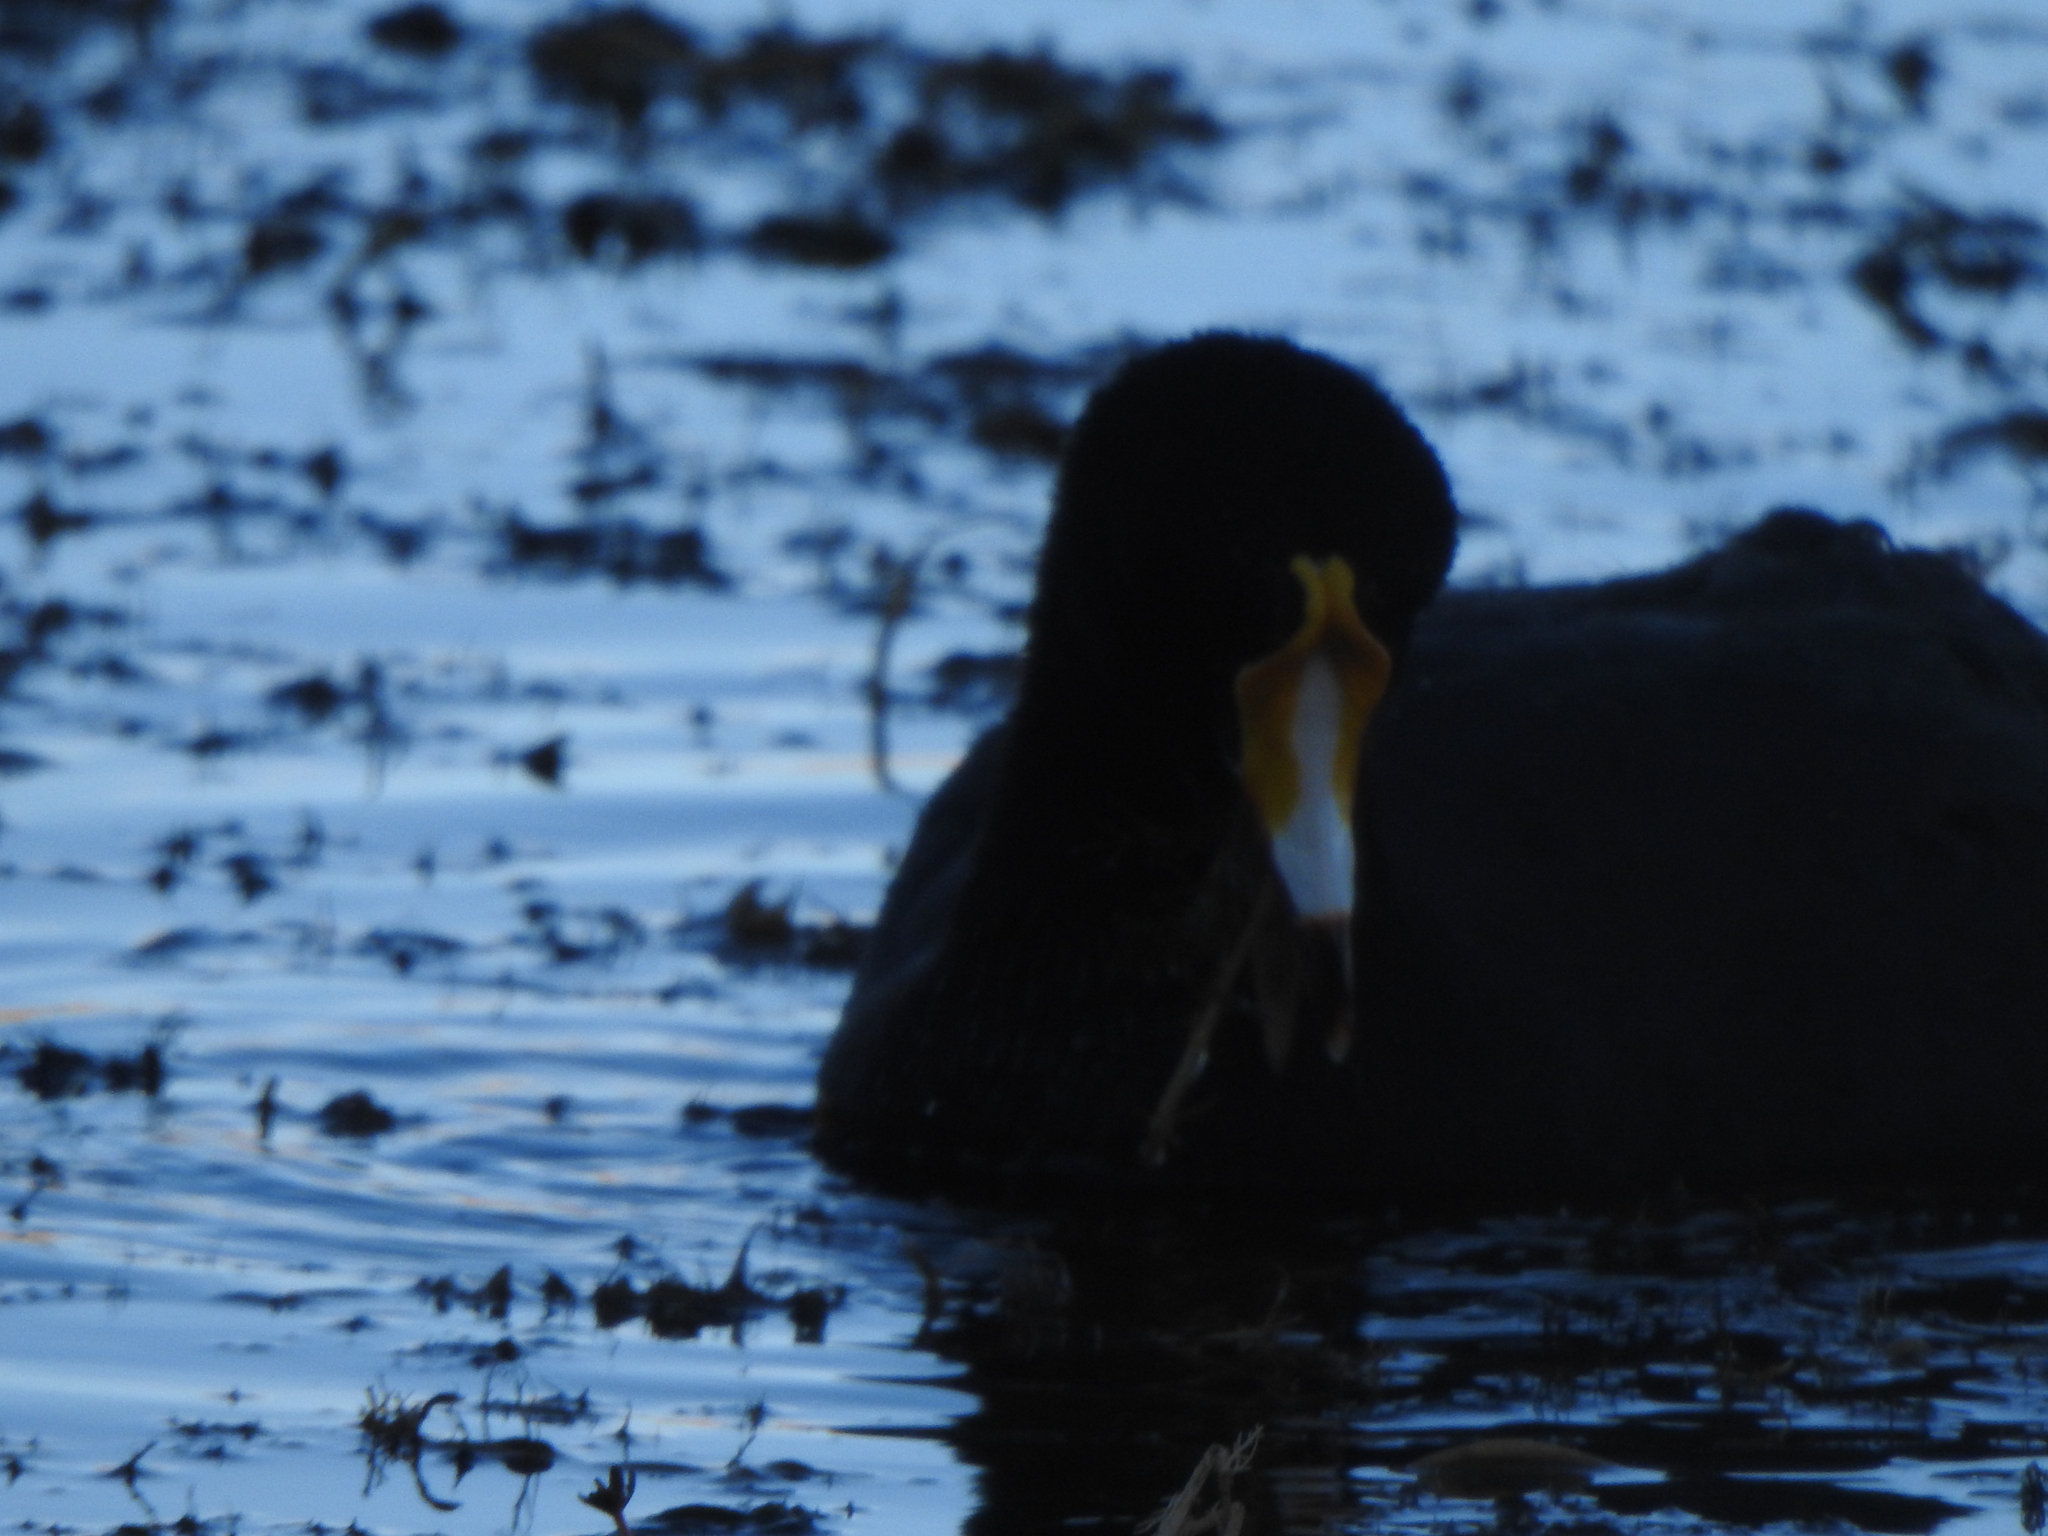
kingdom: Animalia
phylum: Chordata
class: Aves
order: Gruiformes
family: Rallidae
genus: Fulica
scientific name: Fulica gigantea
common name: Giant coot
